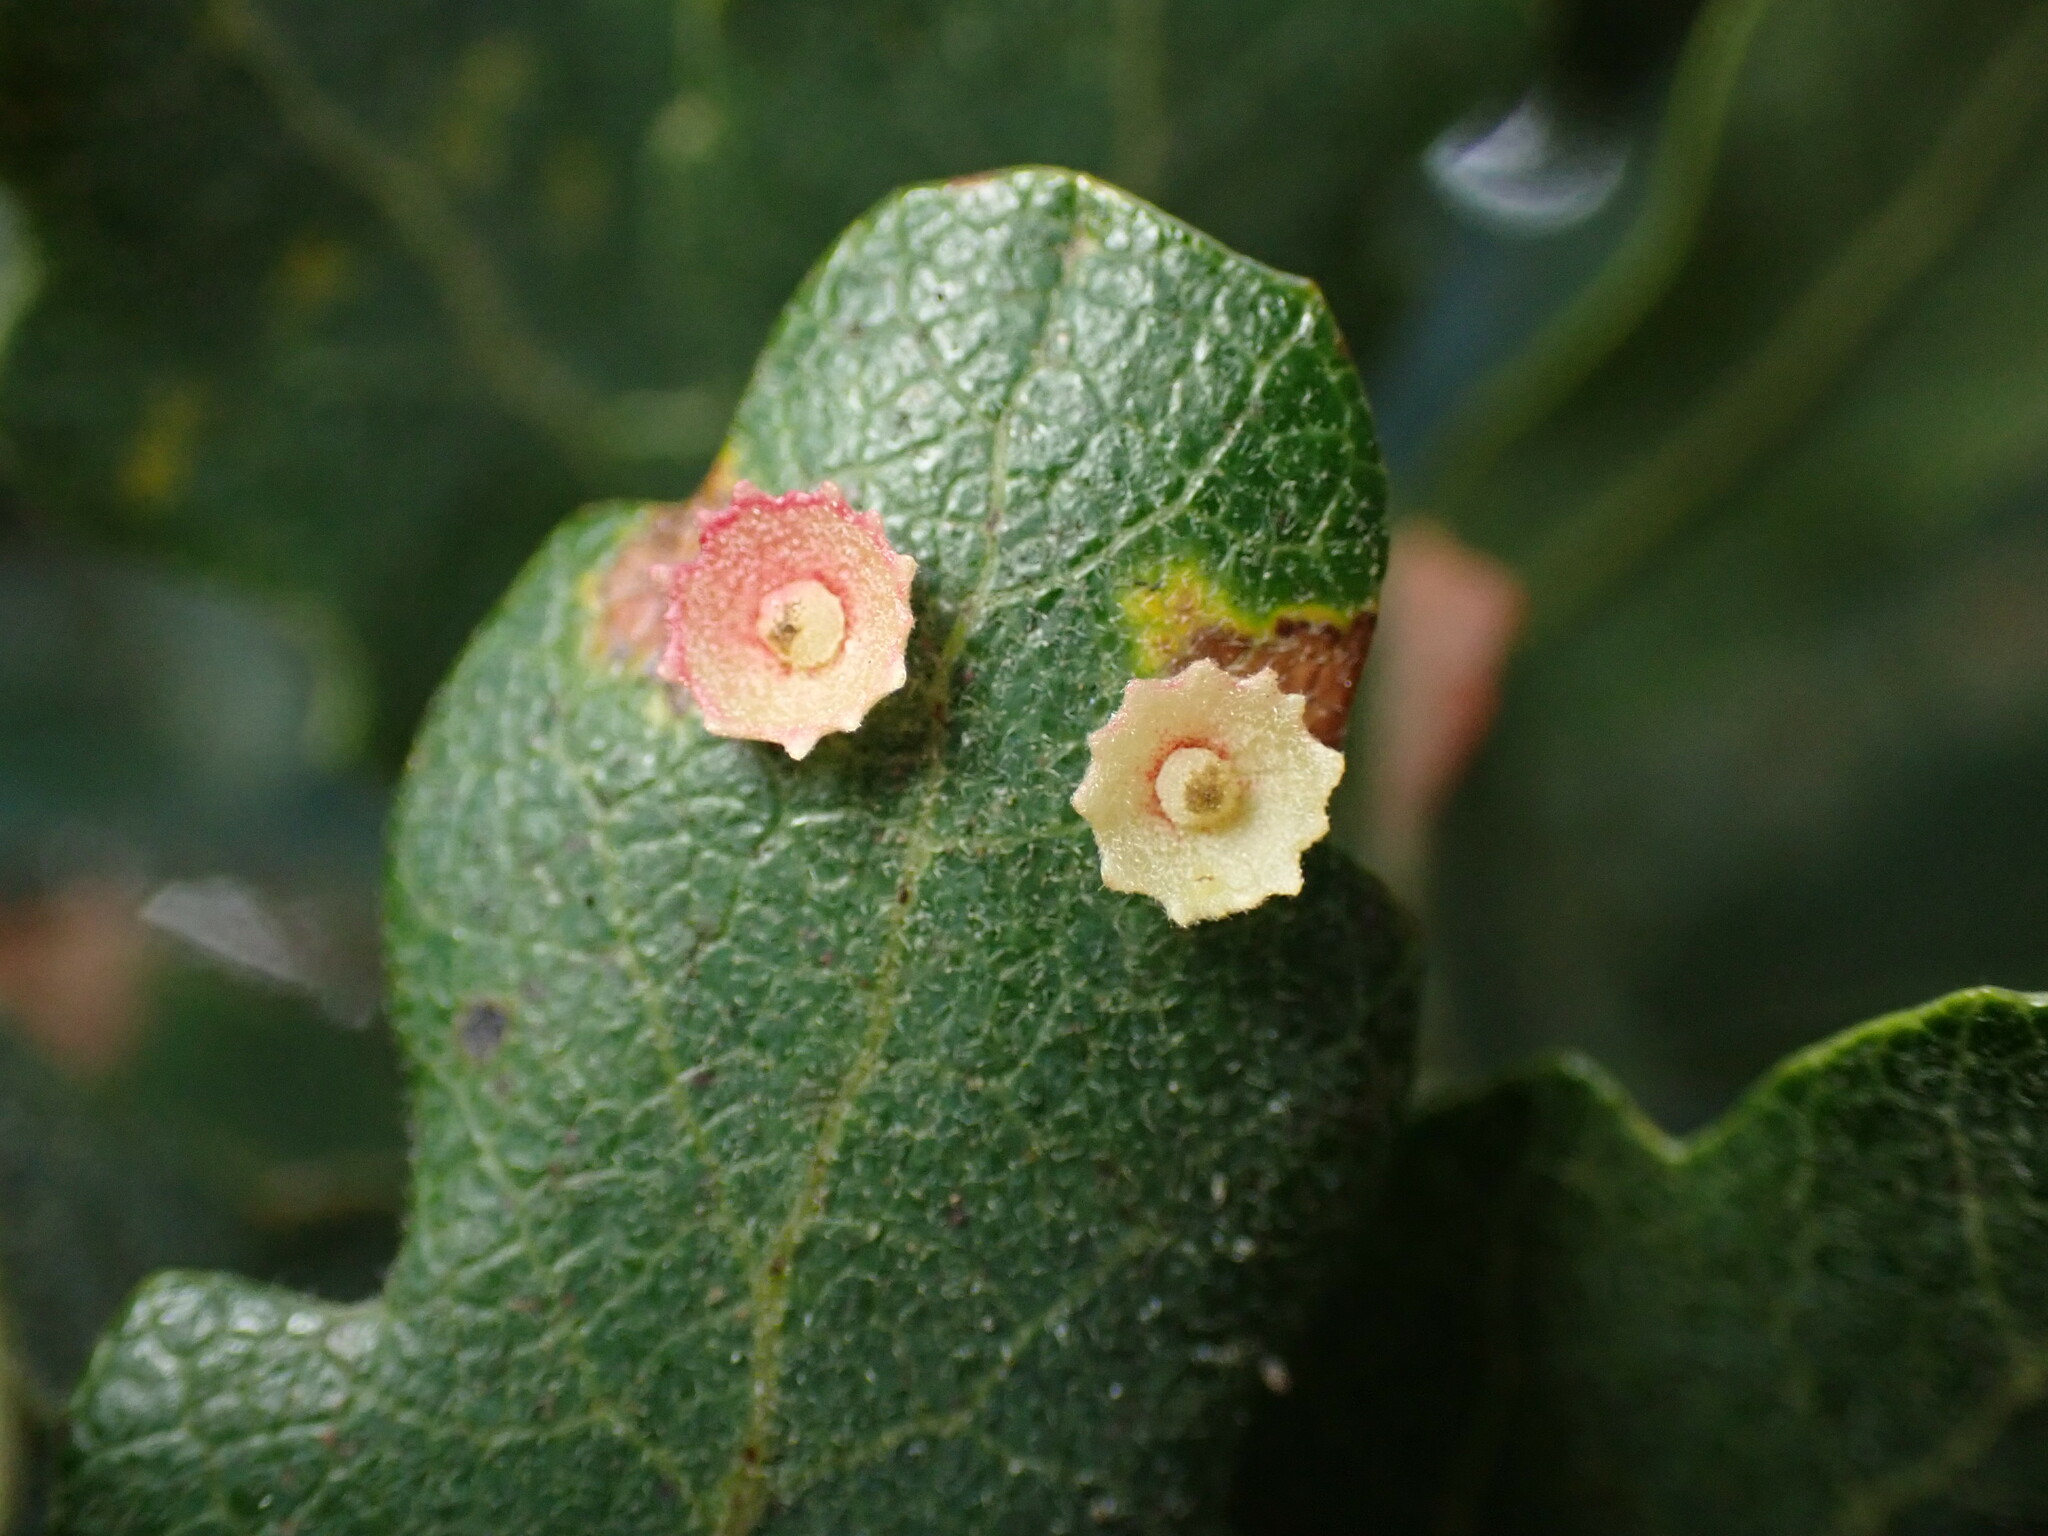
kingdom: Animalia
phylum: Arthropoda
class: Insecta
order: Hymenoptera
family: Cynipidae
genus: Andricus
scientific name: Andricus
